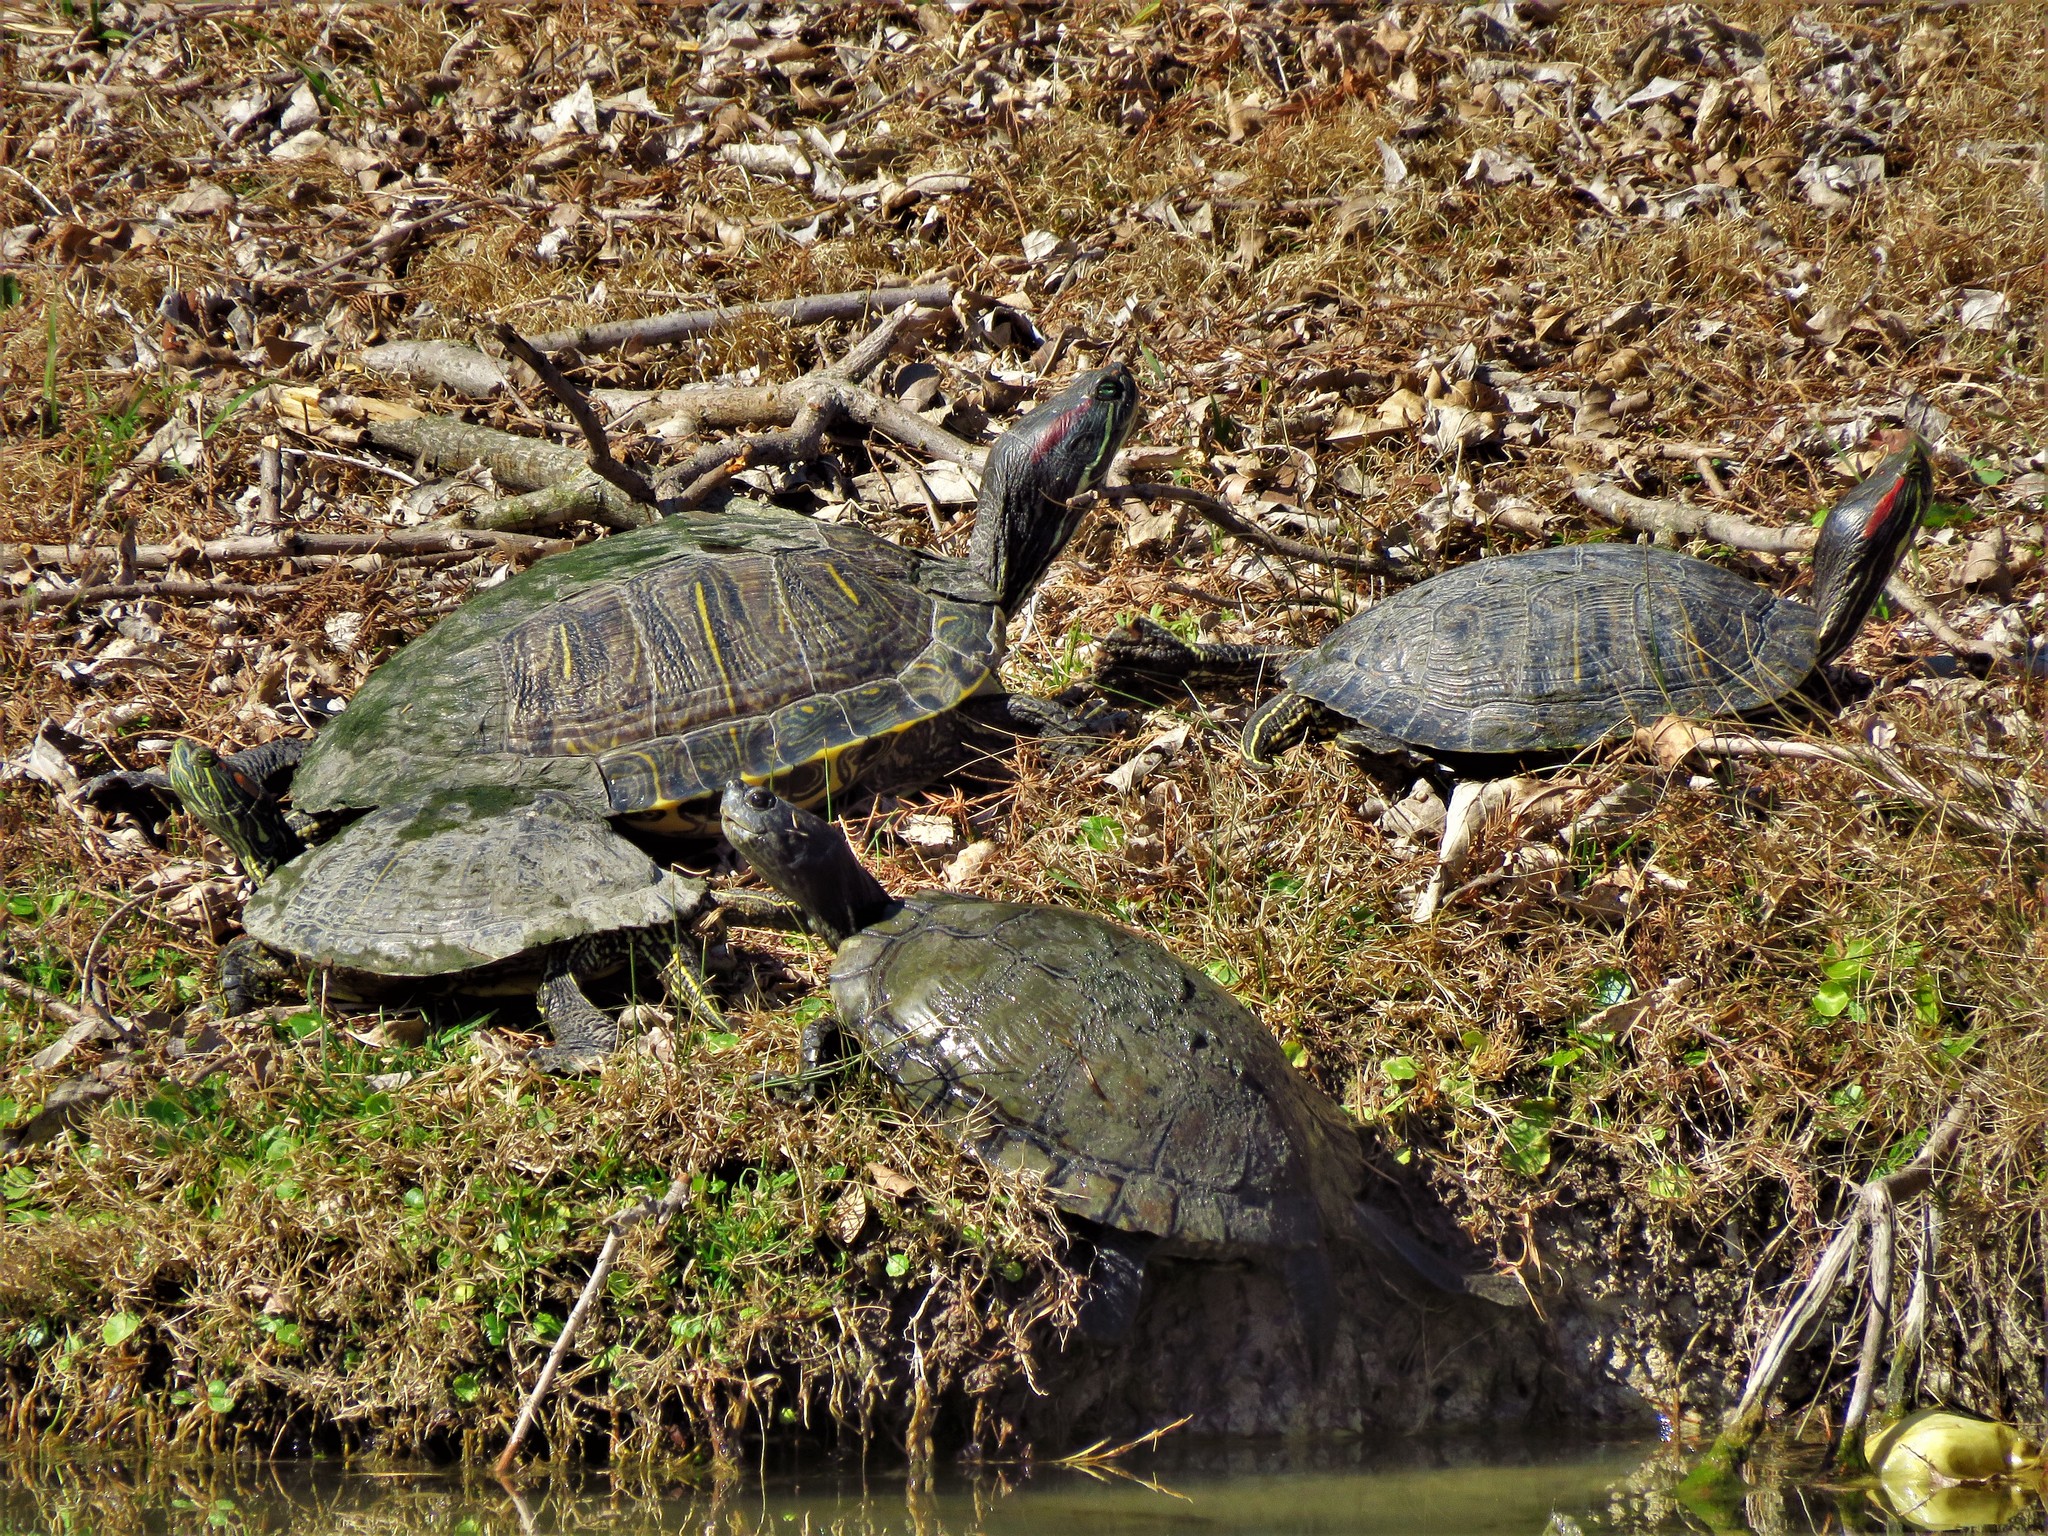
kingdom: Animalia
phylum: Chordata
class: Testudines
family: Emydidae
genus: Trachemys
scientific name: Trachemys scripta
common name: Slider
